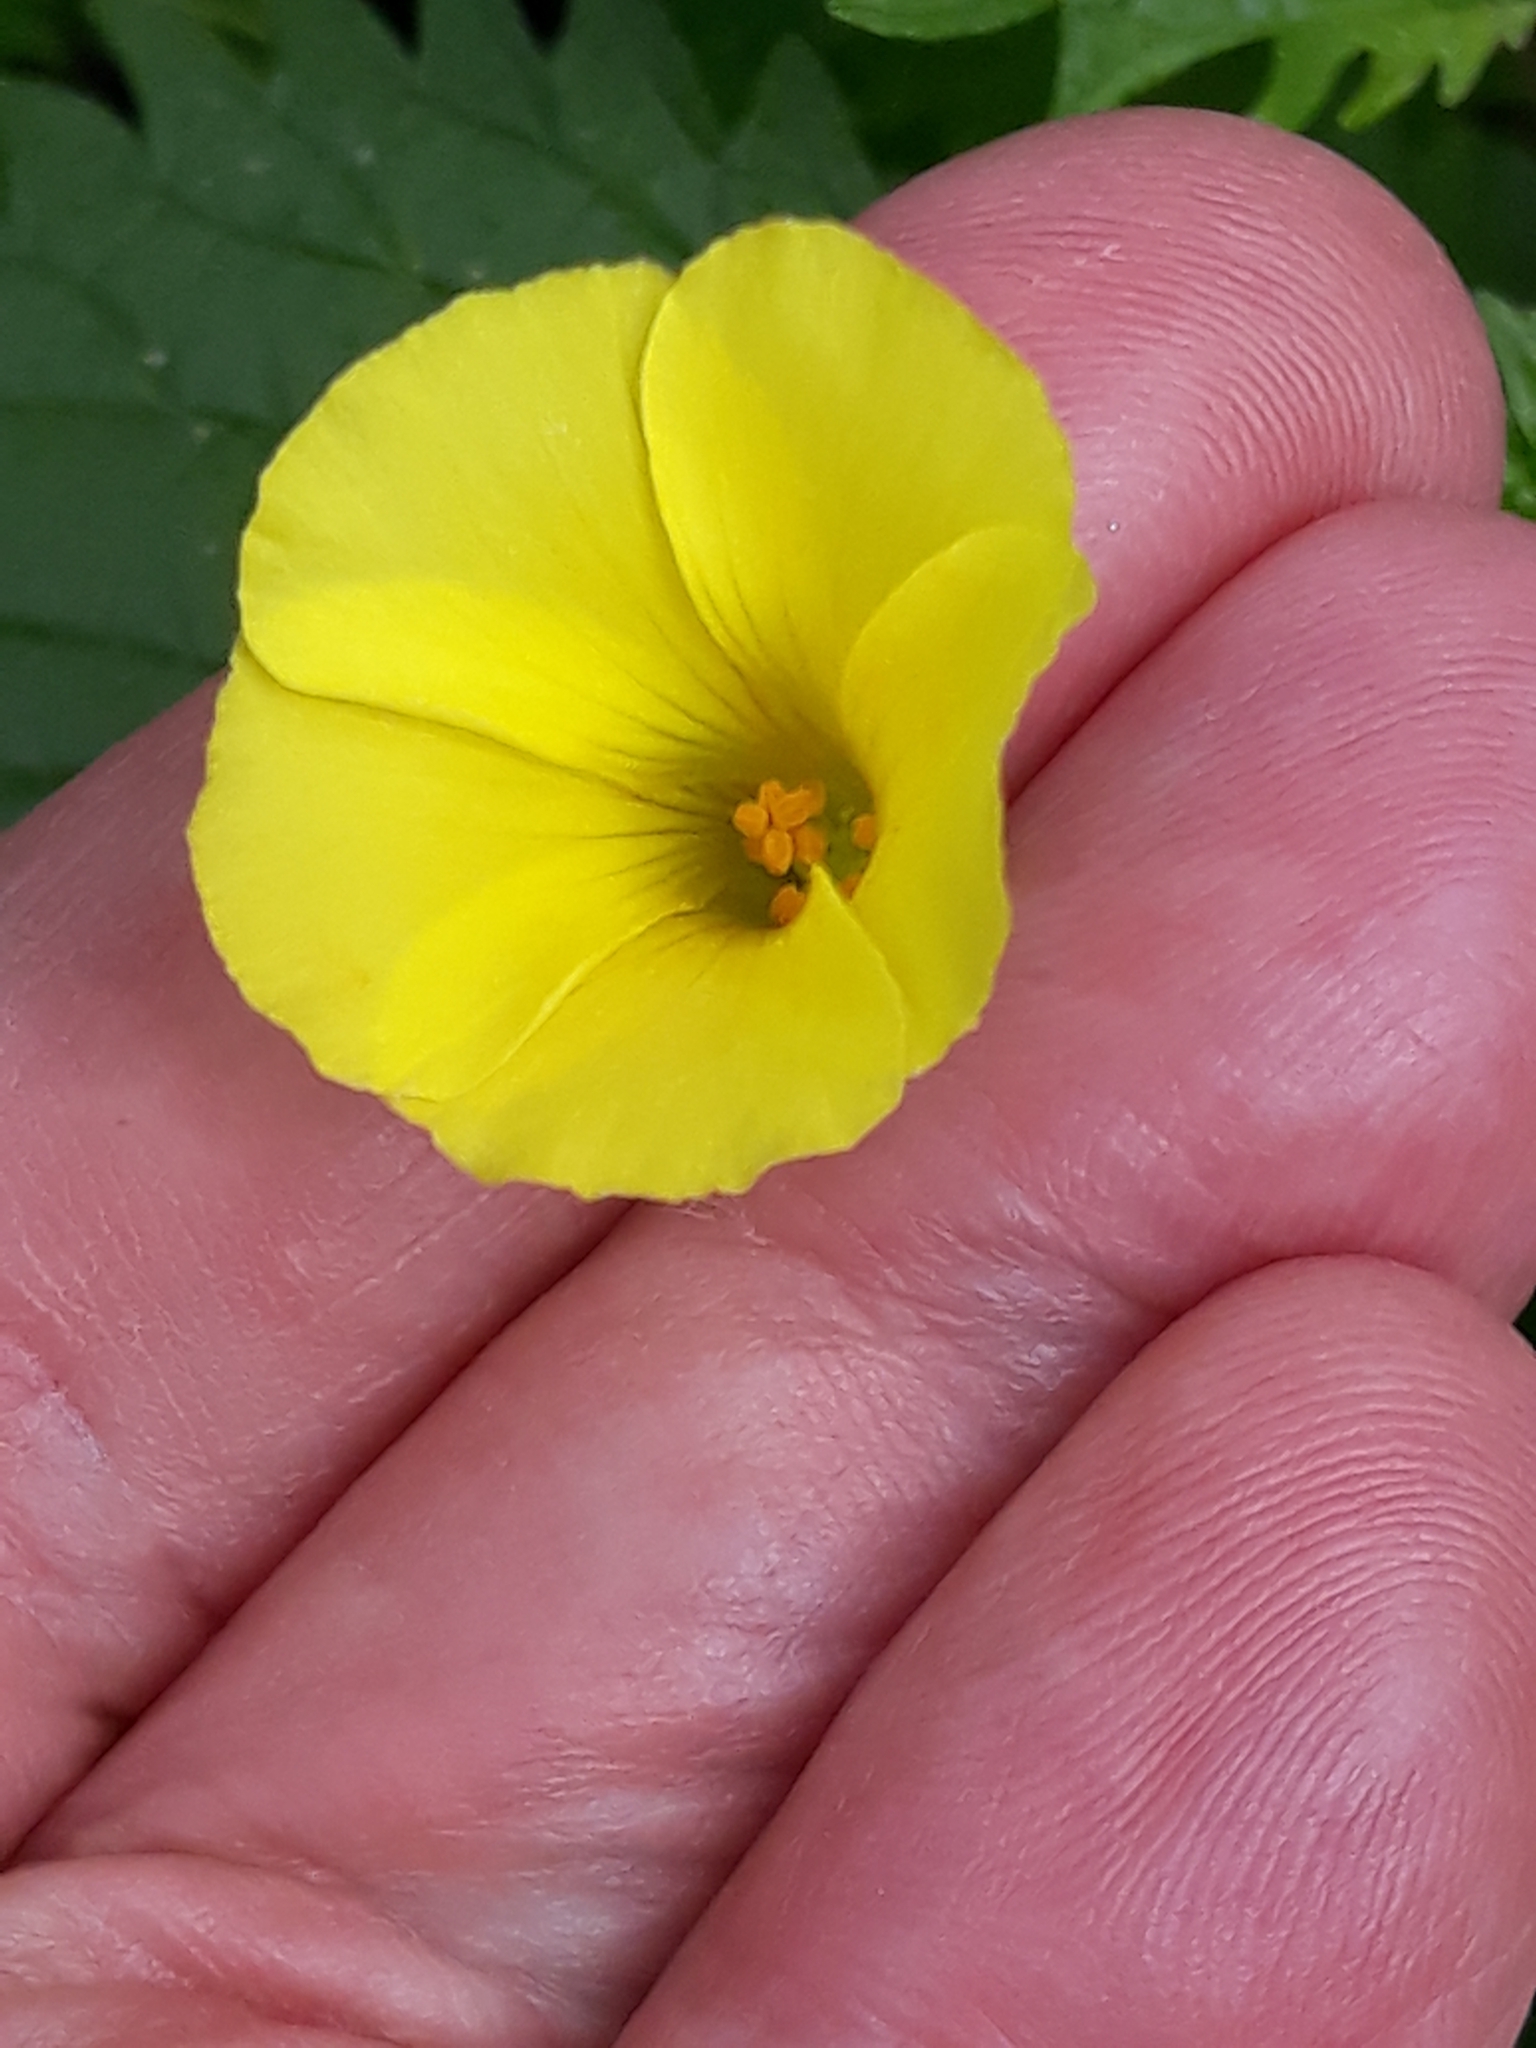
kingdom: Plantae
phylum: Tracheophyta
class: Magnoliopsida
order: Oxalidales
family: Oxalidaceae
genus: Oxalis
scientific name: Oxalis pes-caprae
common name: Bermuda-buttercup
